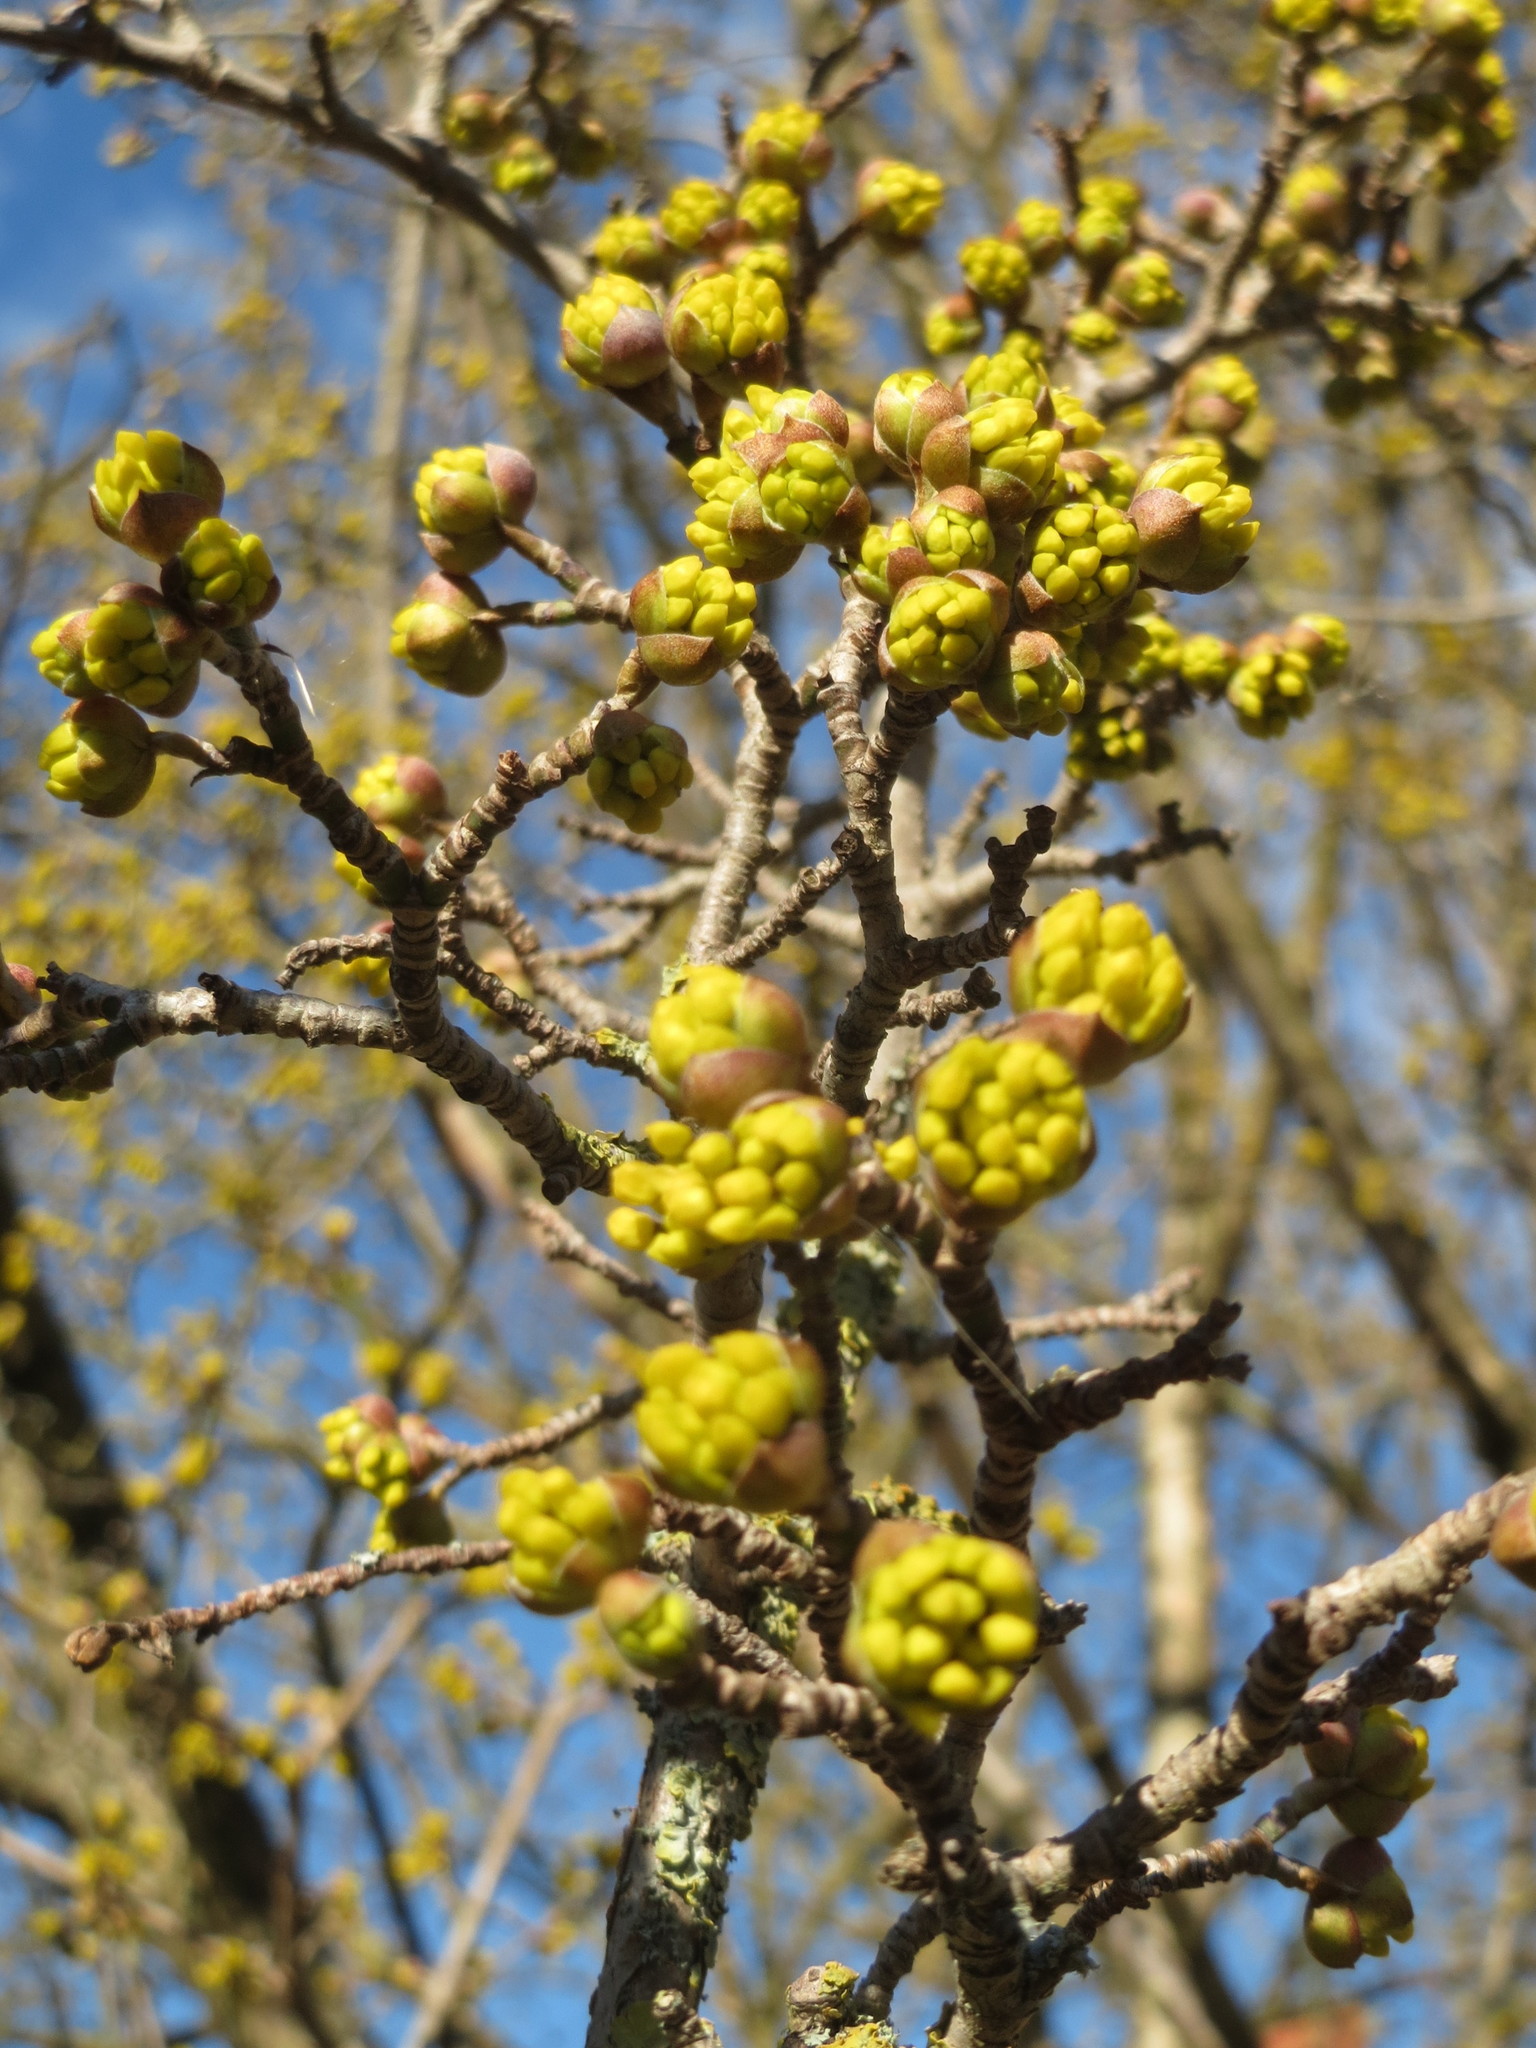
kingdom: Plantae
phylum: Tracheophyta
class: Magnoliopsida
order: Cornales
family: Cornaceae
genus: Cornus
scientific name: Cornus mas
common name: Cornelian-cherry
